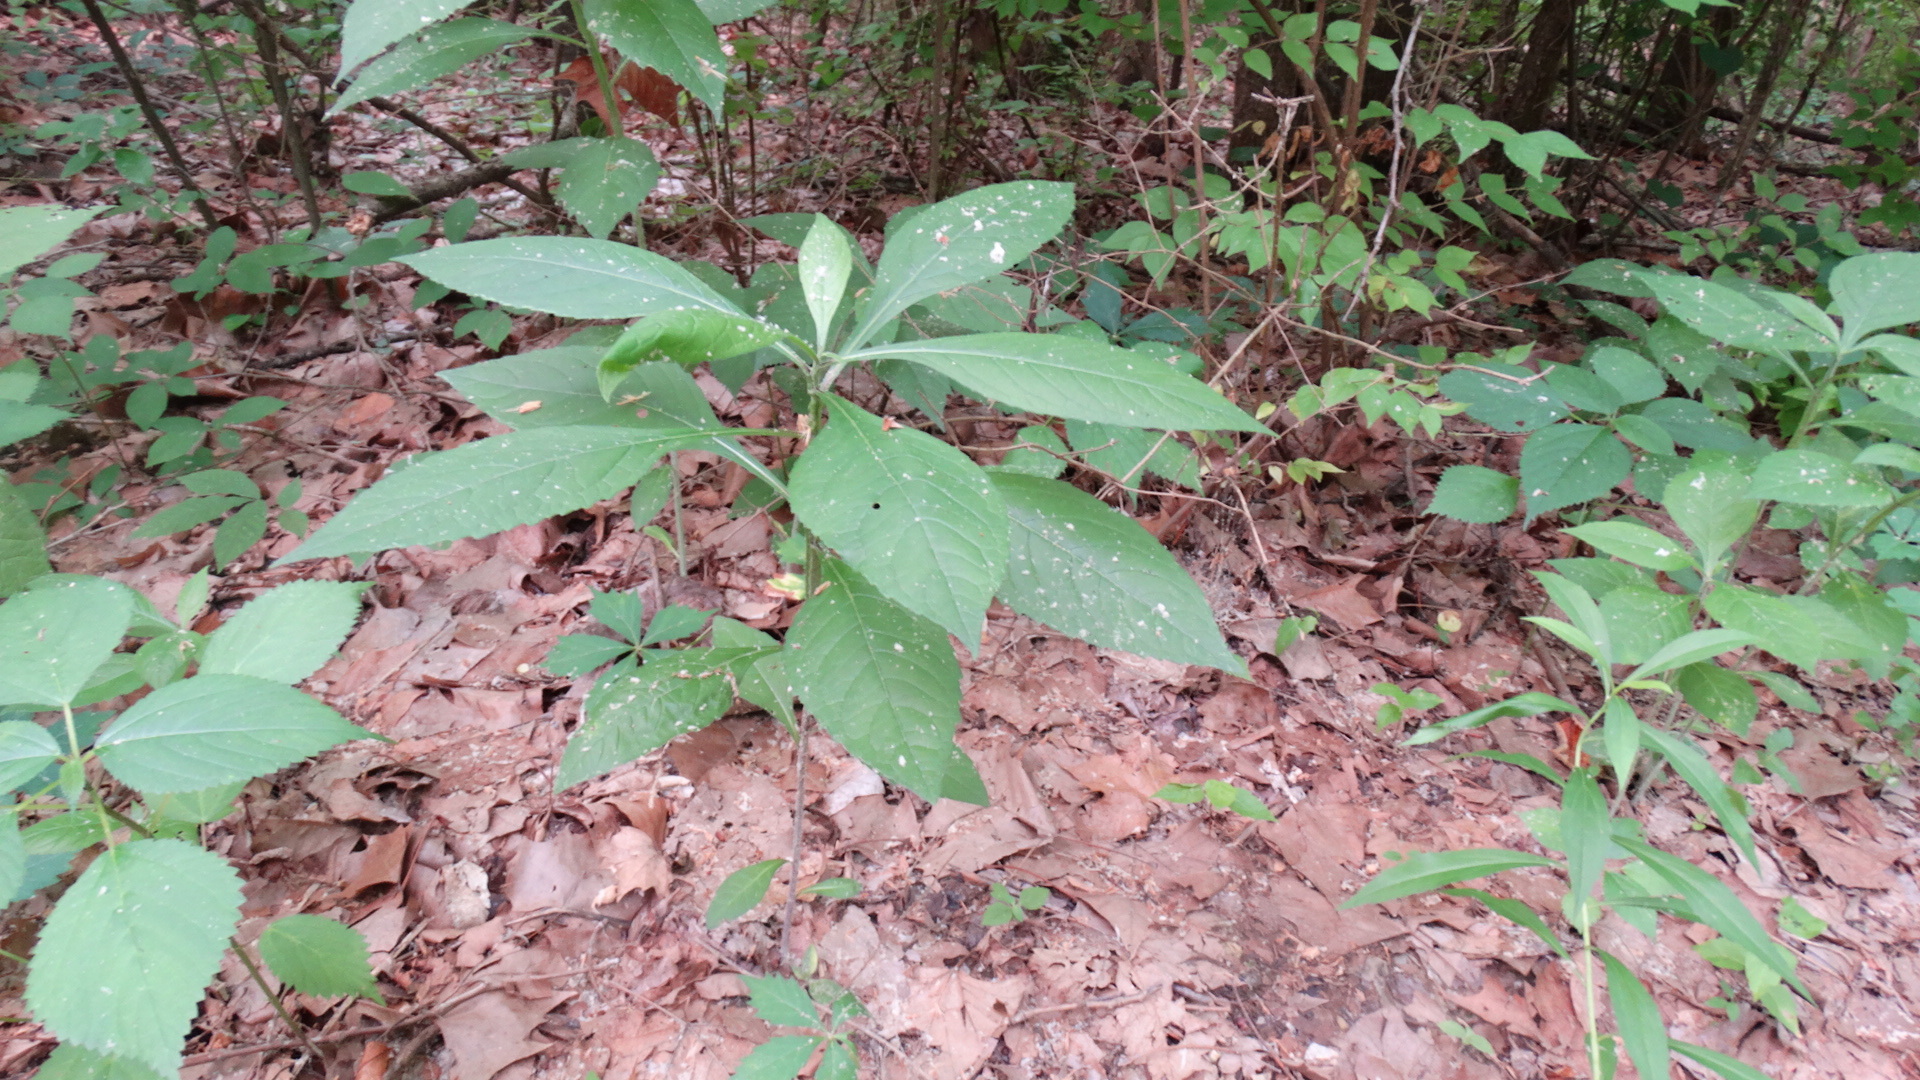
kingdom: Plantae
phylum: Tracheophyta
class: Magnoliopsida
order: Asterales
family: Asteraceae
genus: Verbesina
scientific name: Verbesina alternifolia
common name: Wingstem
